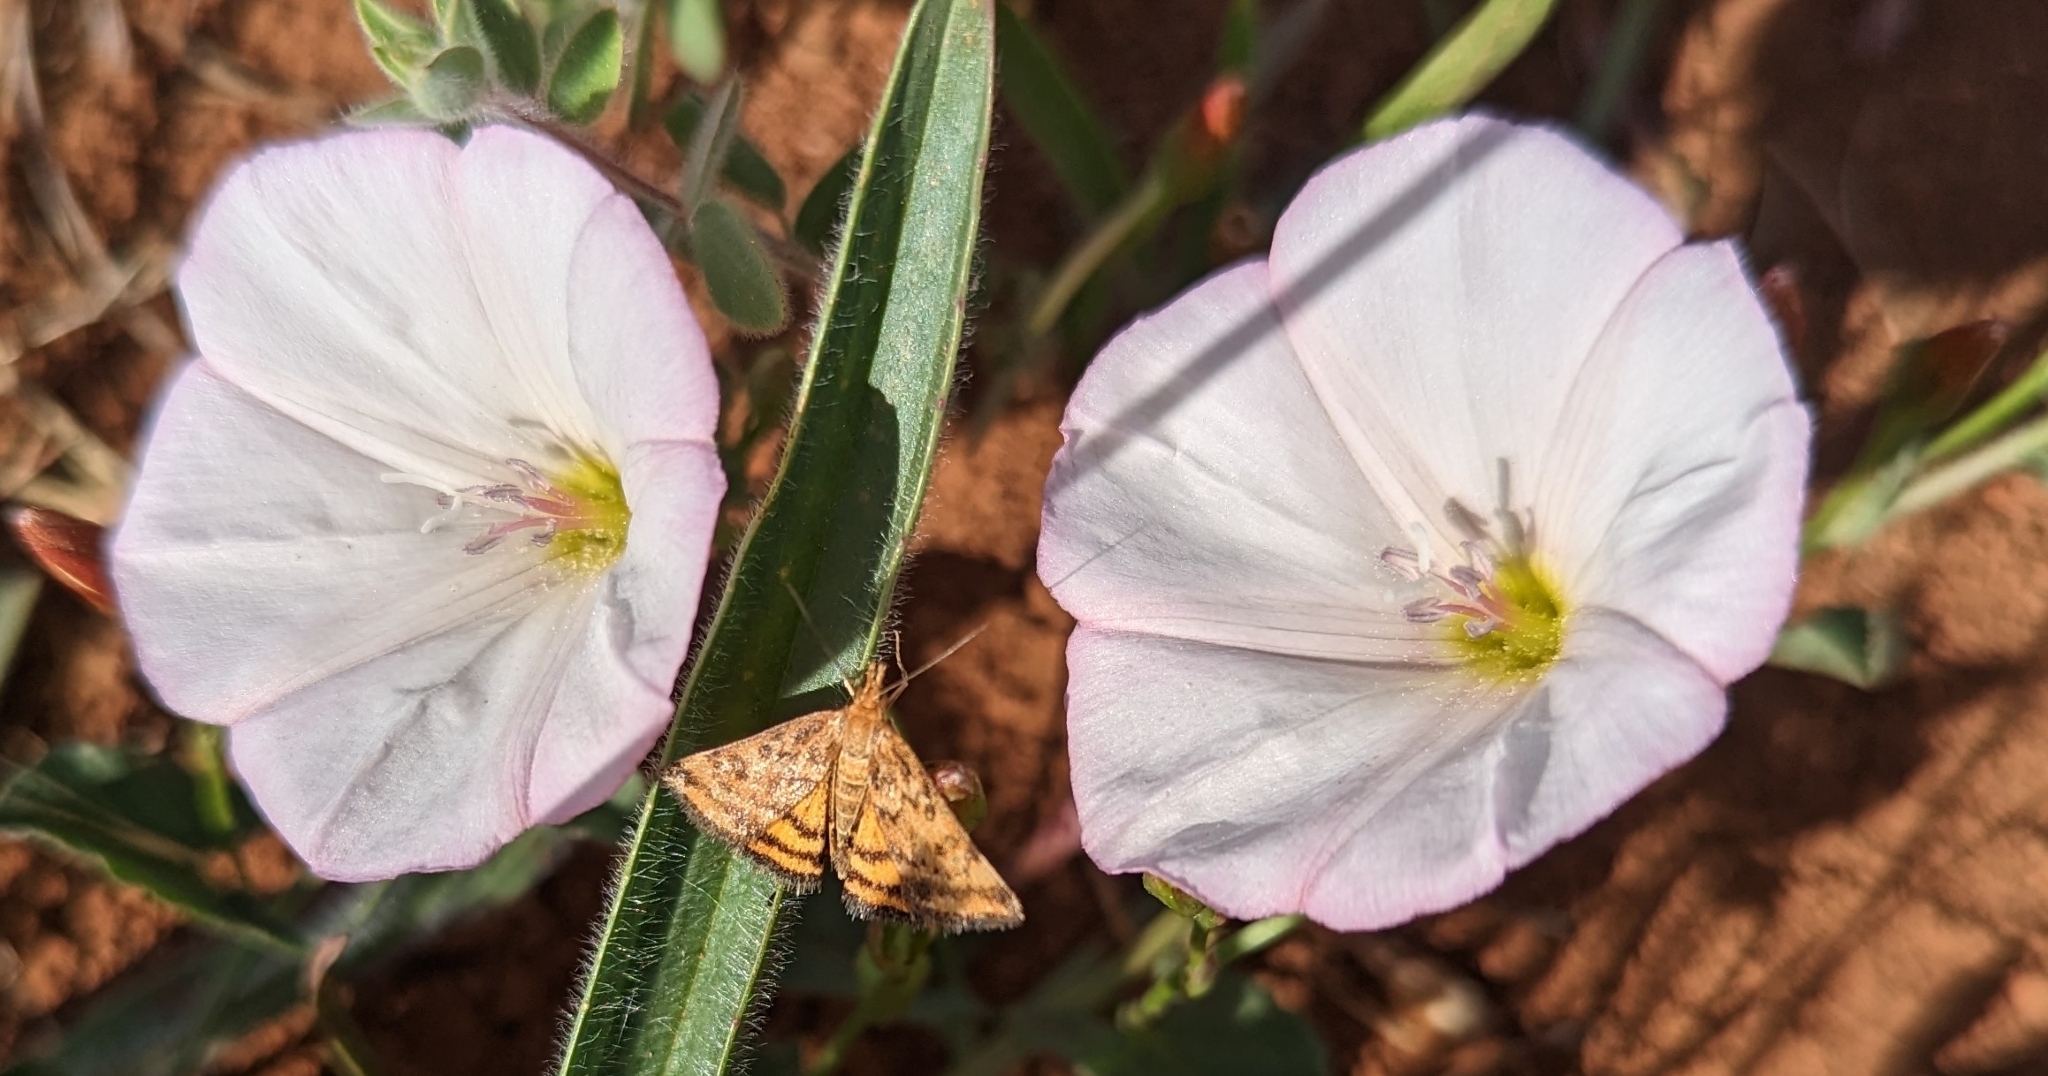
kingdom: Animalia
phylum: Arthropoda
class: Insecta
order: Lepidoptera
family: Crambidae
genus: Pyrausta
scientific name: Pyrausta subsequalis
